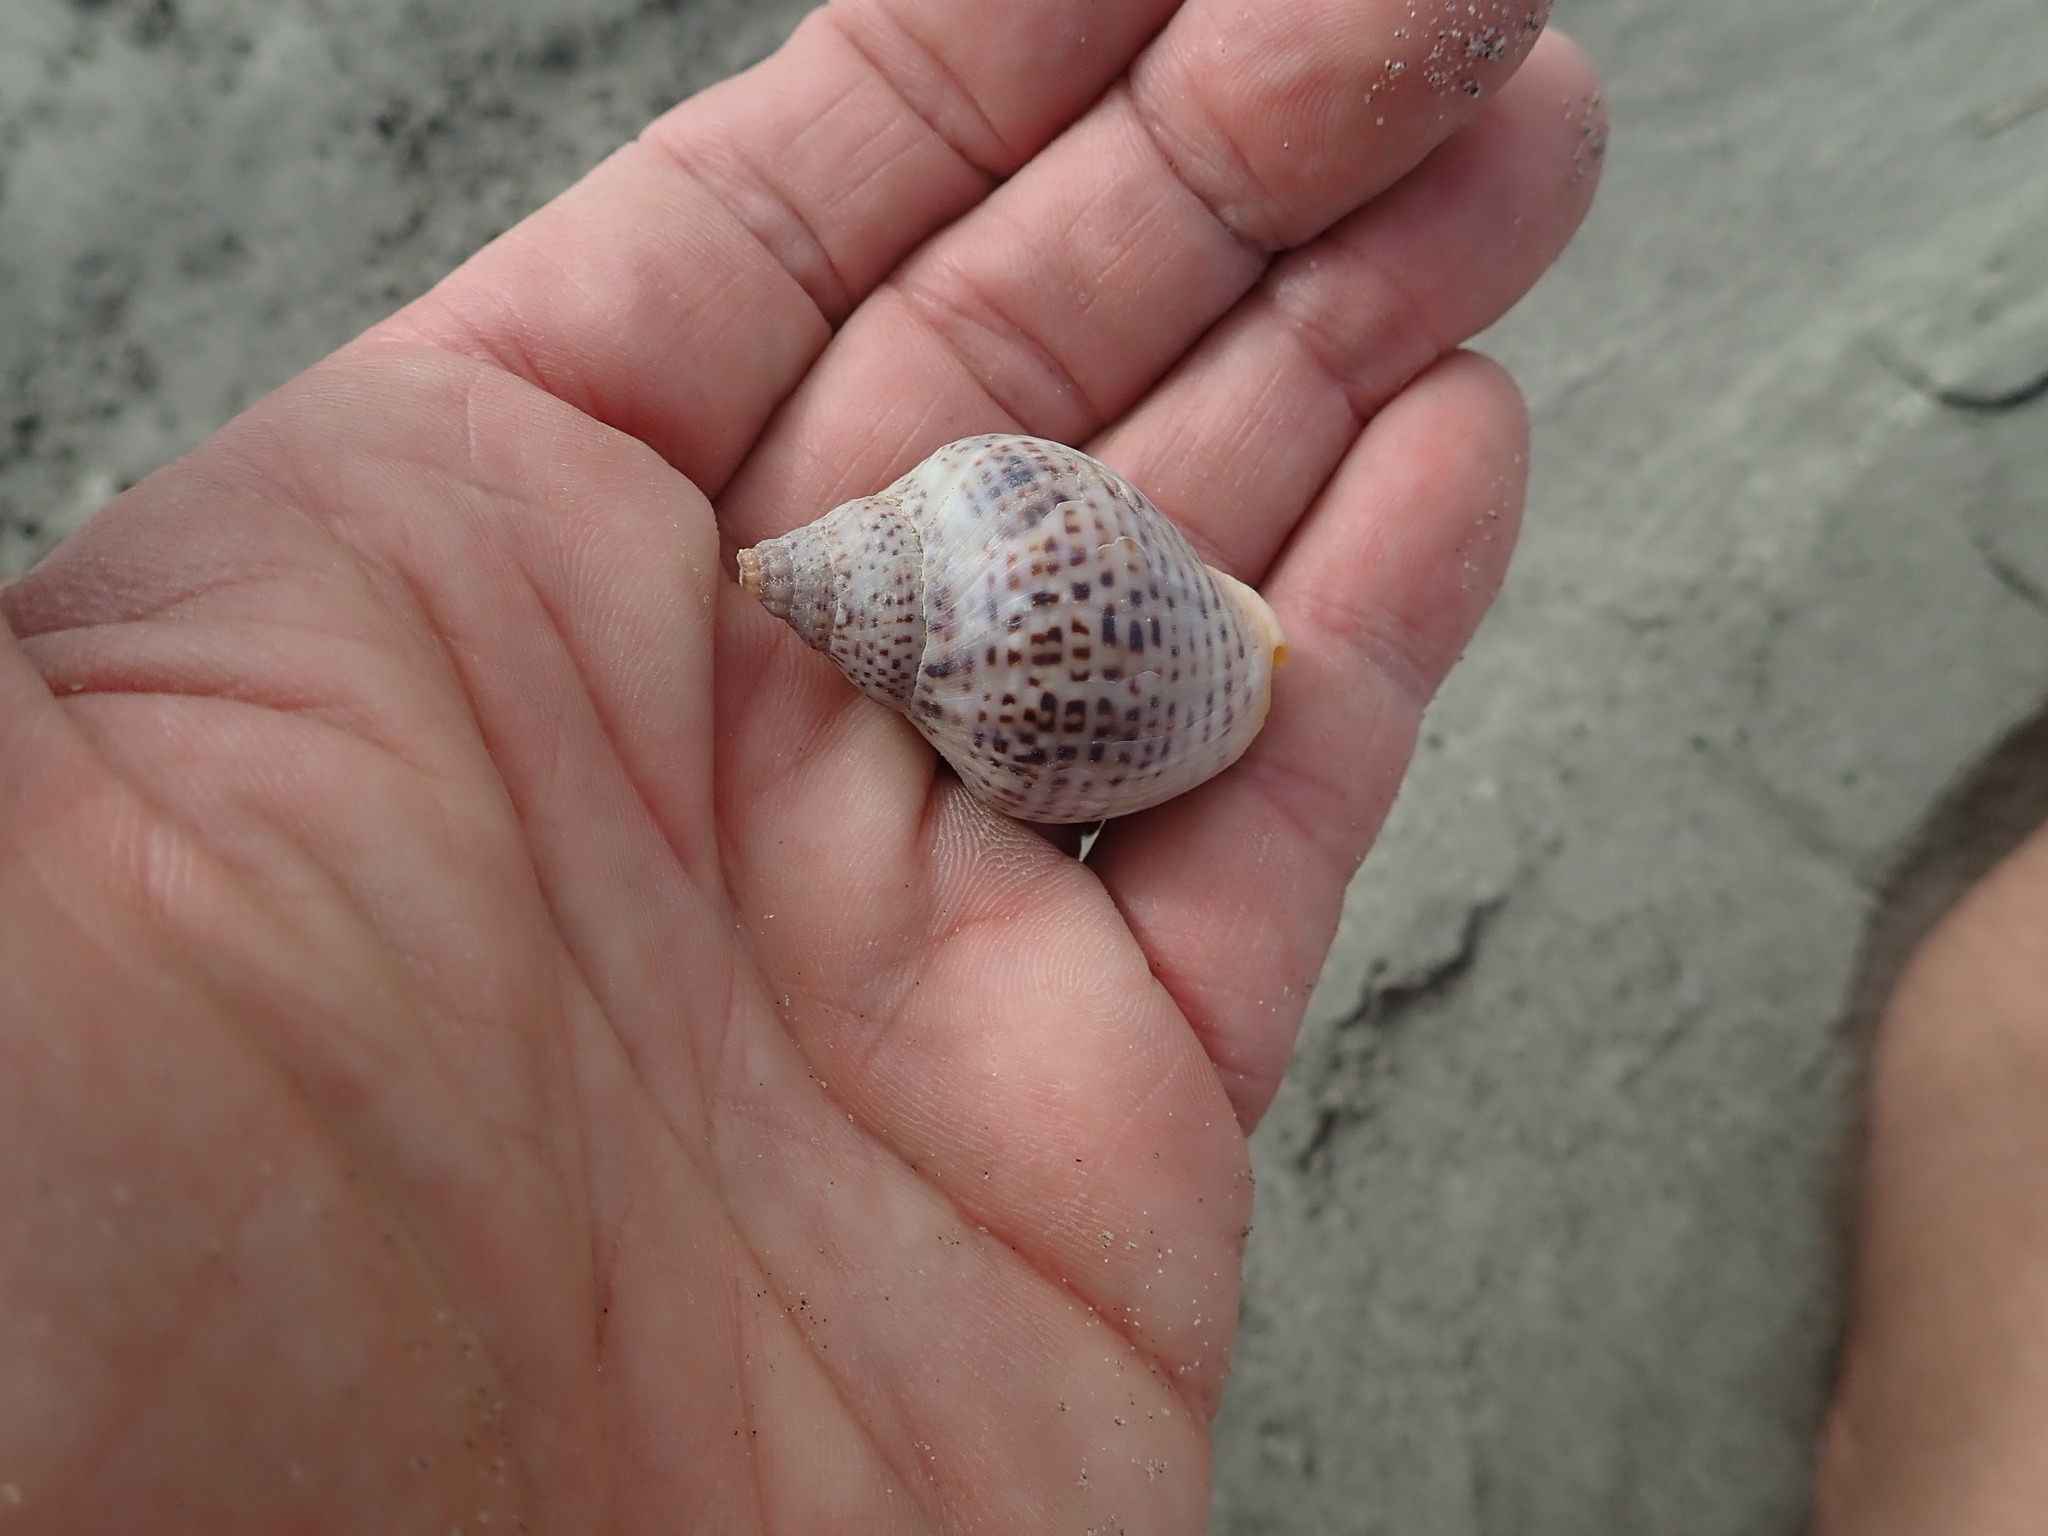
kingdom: Animalia
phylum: Mollusca
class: Gastropoda
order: Neogastropoda
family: Cominellidae
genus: Cominella
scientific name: Cominella adspersa
